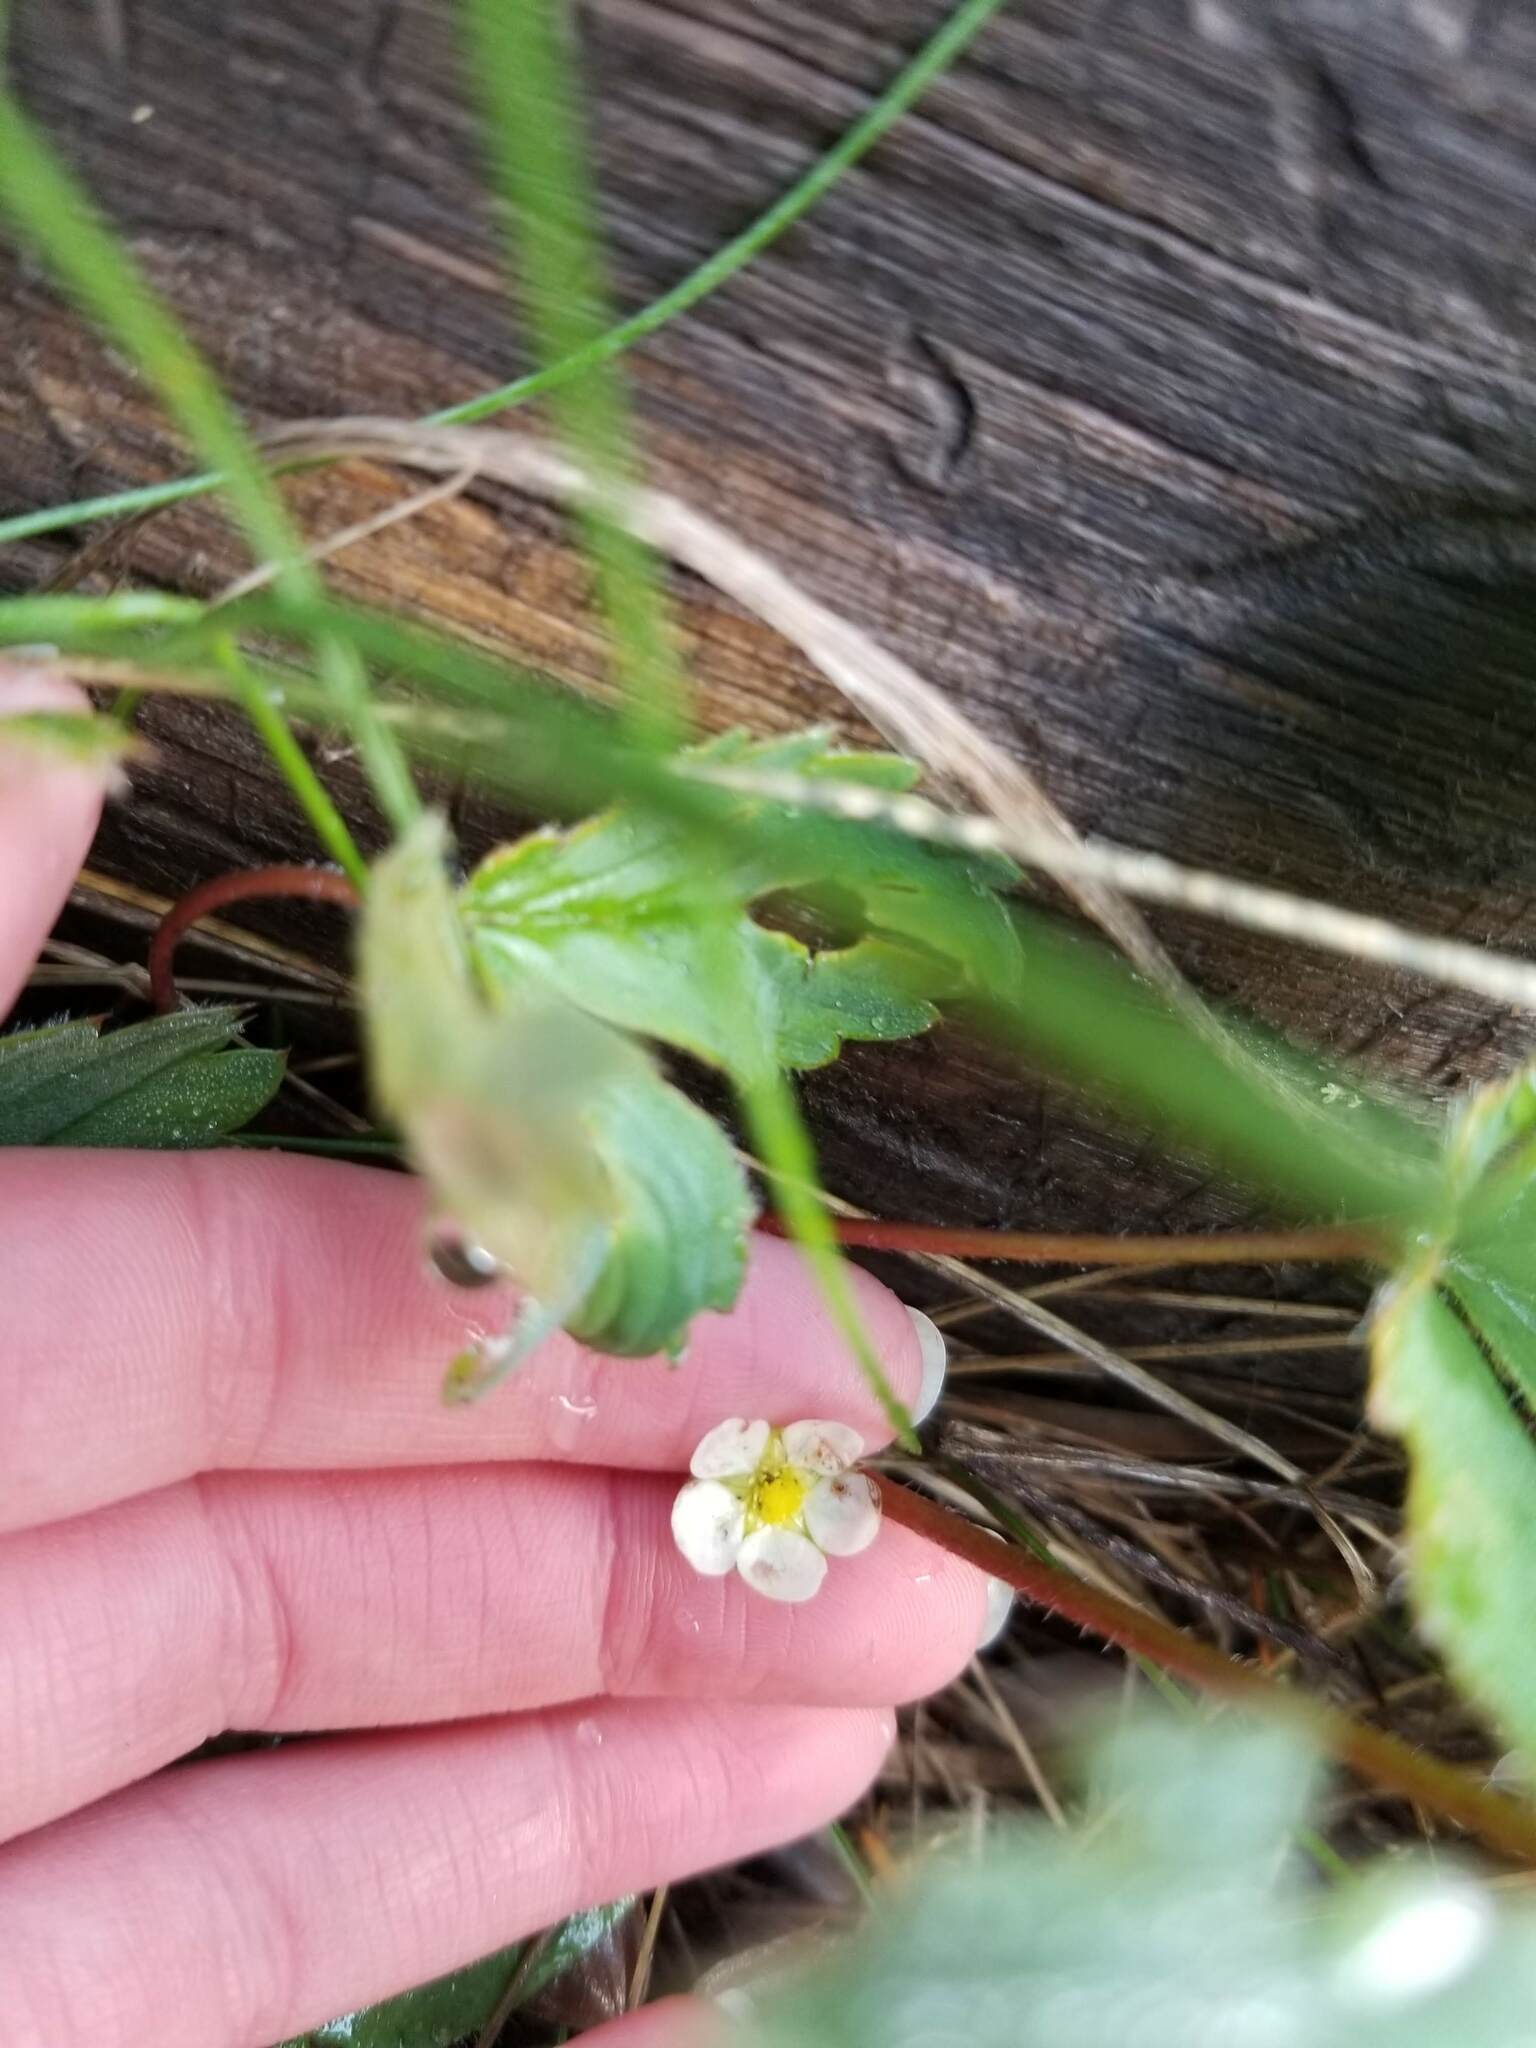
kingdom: Plantae
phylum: Tracheophyta
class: Magnoliopsida
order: Rosales
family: Rosaceae
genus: Fragaria
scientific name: Fragaria virginiana
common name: Thickleaved wild strawberry
